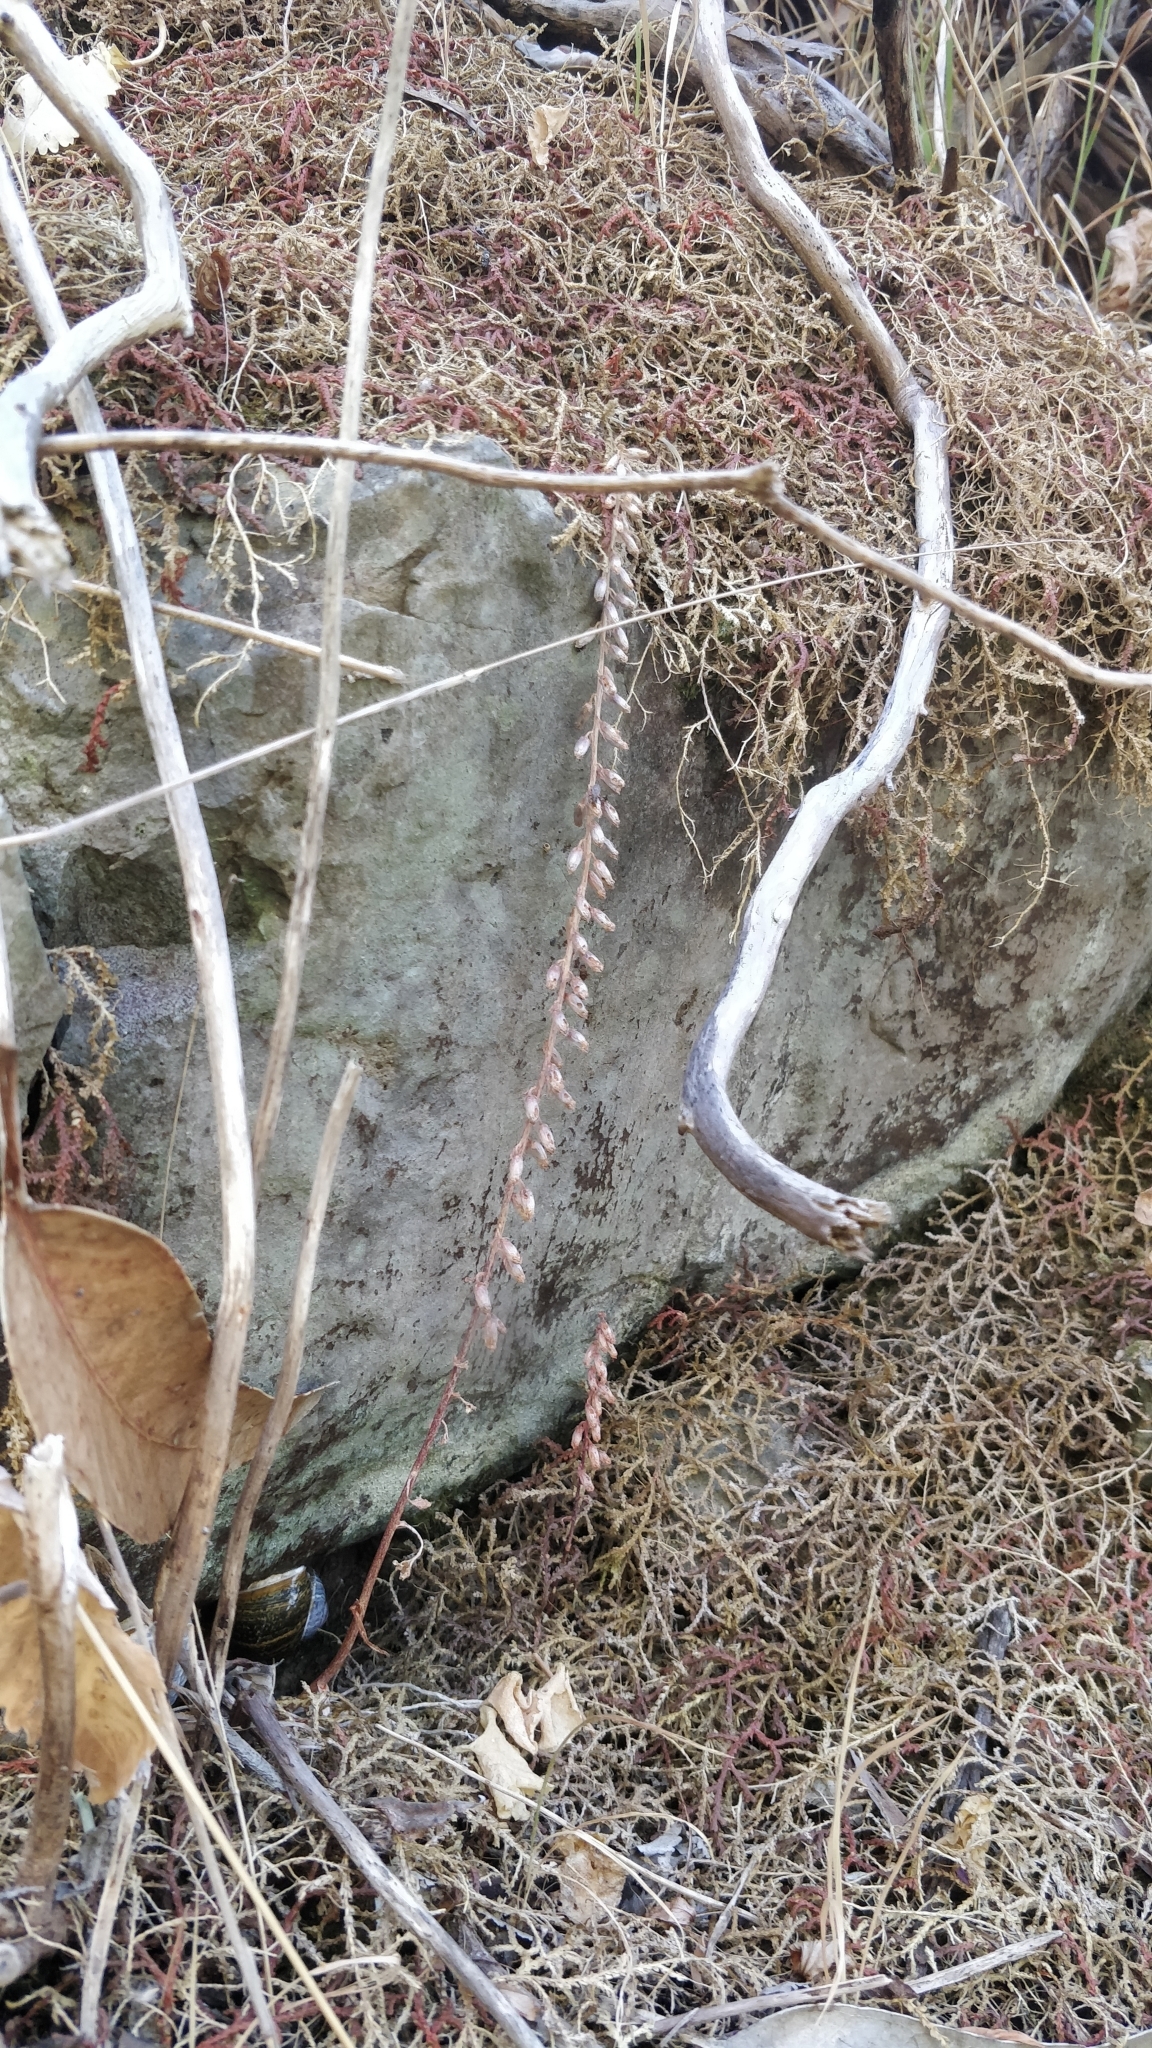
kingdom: Plantae
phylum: Tracheophyta
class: Magnoliopsida
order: Saxifragales
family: Crassulaceae
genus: Umbilicus
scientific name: Umbilicus rupestris
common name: Navelwort
